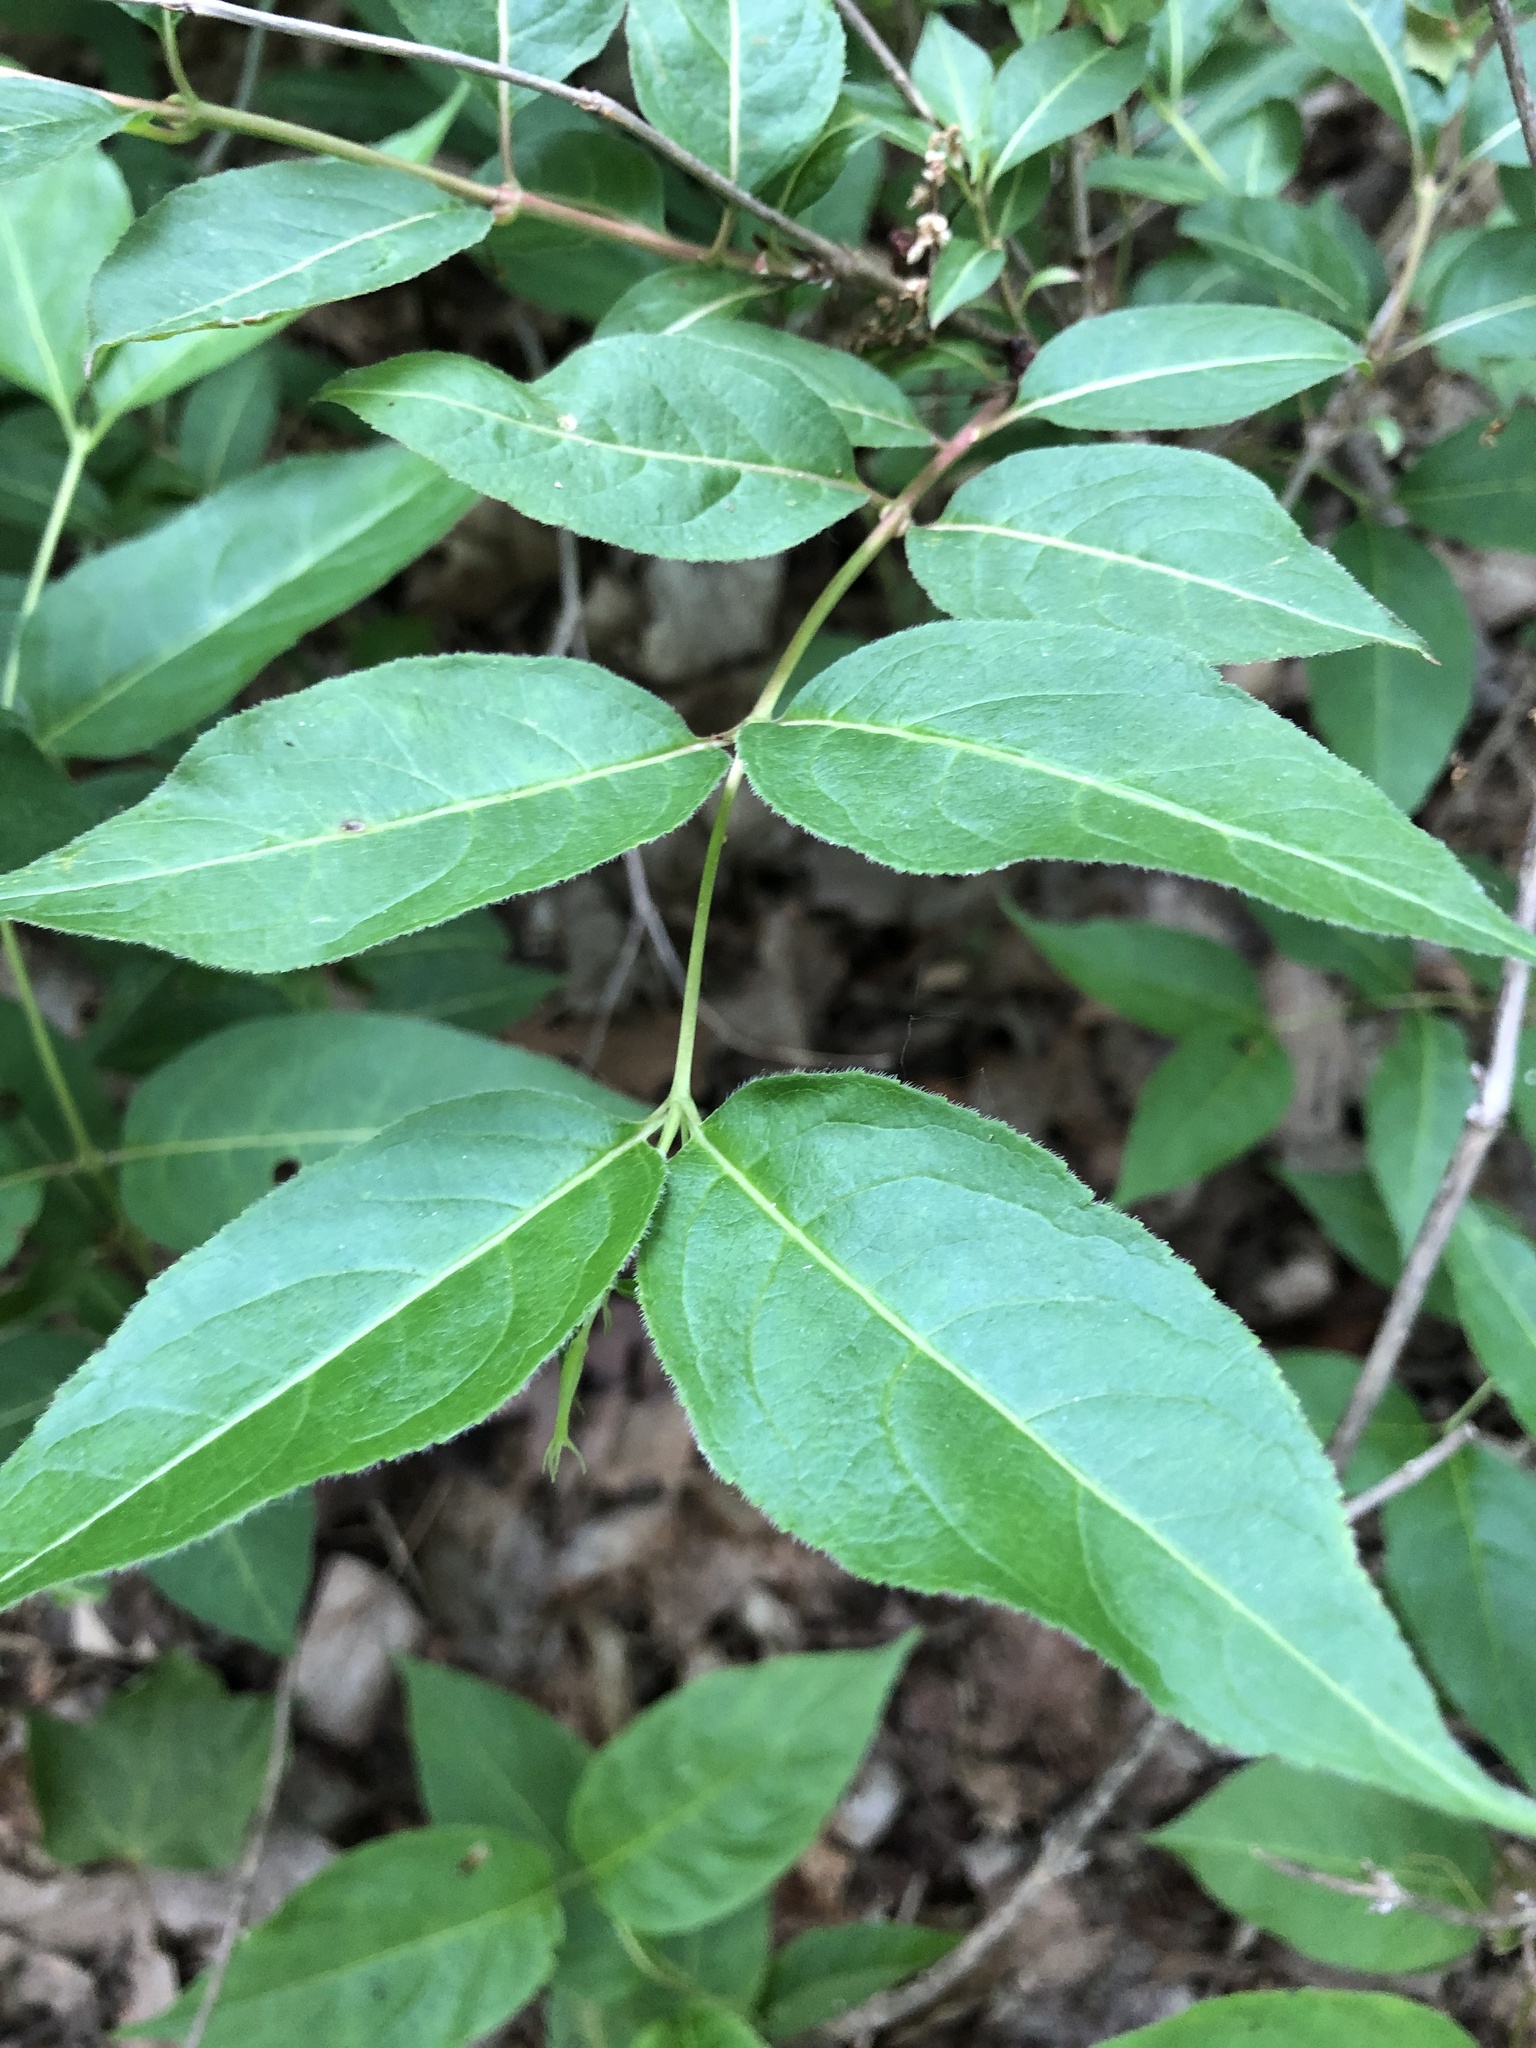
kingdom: Plantae
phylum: Tracheophyta
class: Magnoliopsida
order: Dipsacales
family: Caprifoliaceae
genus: Diervilla
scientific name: Diervilla lonicera
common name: Bush-honeysuckle
